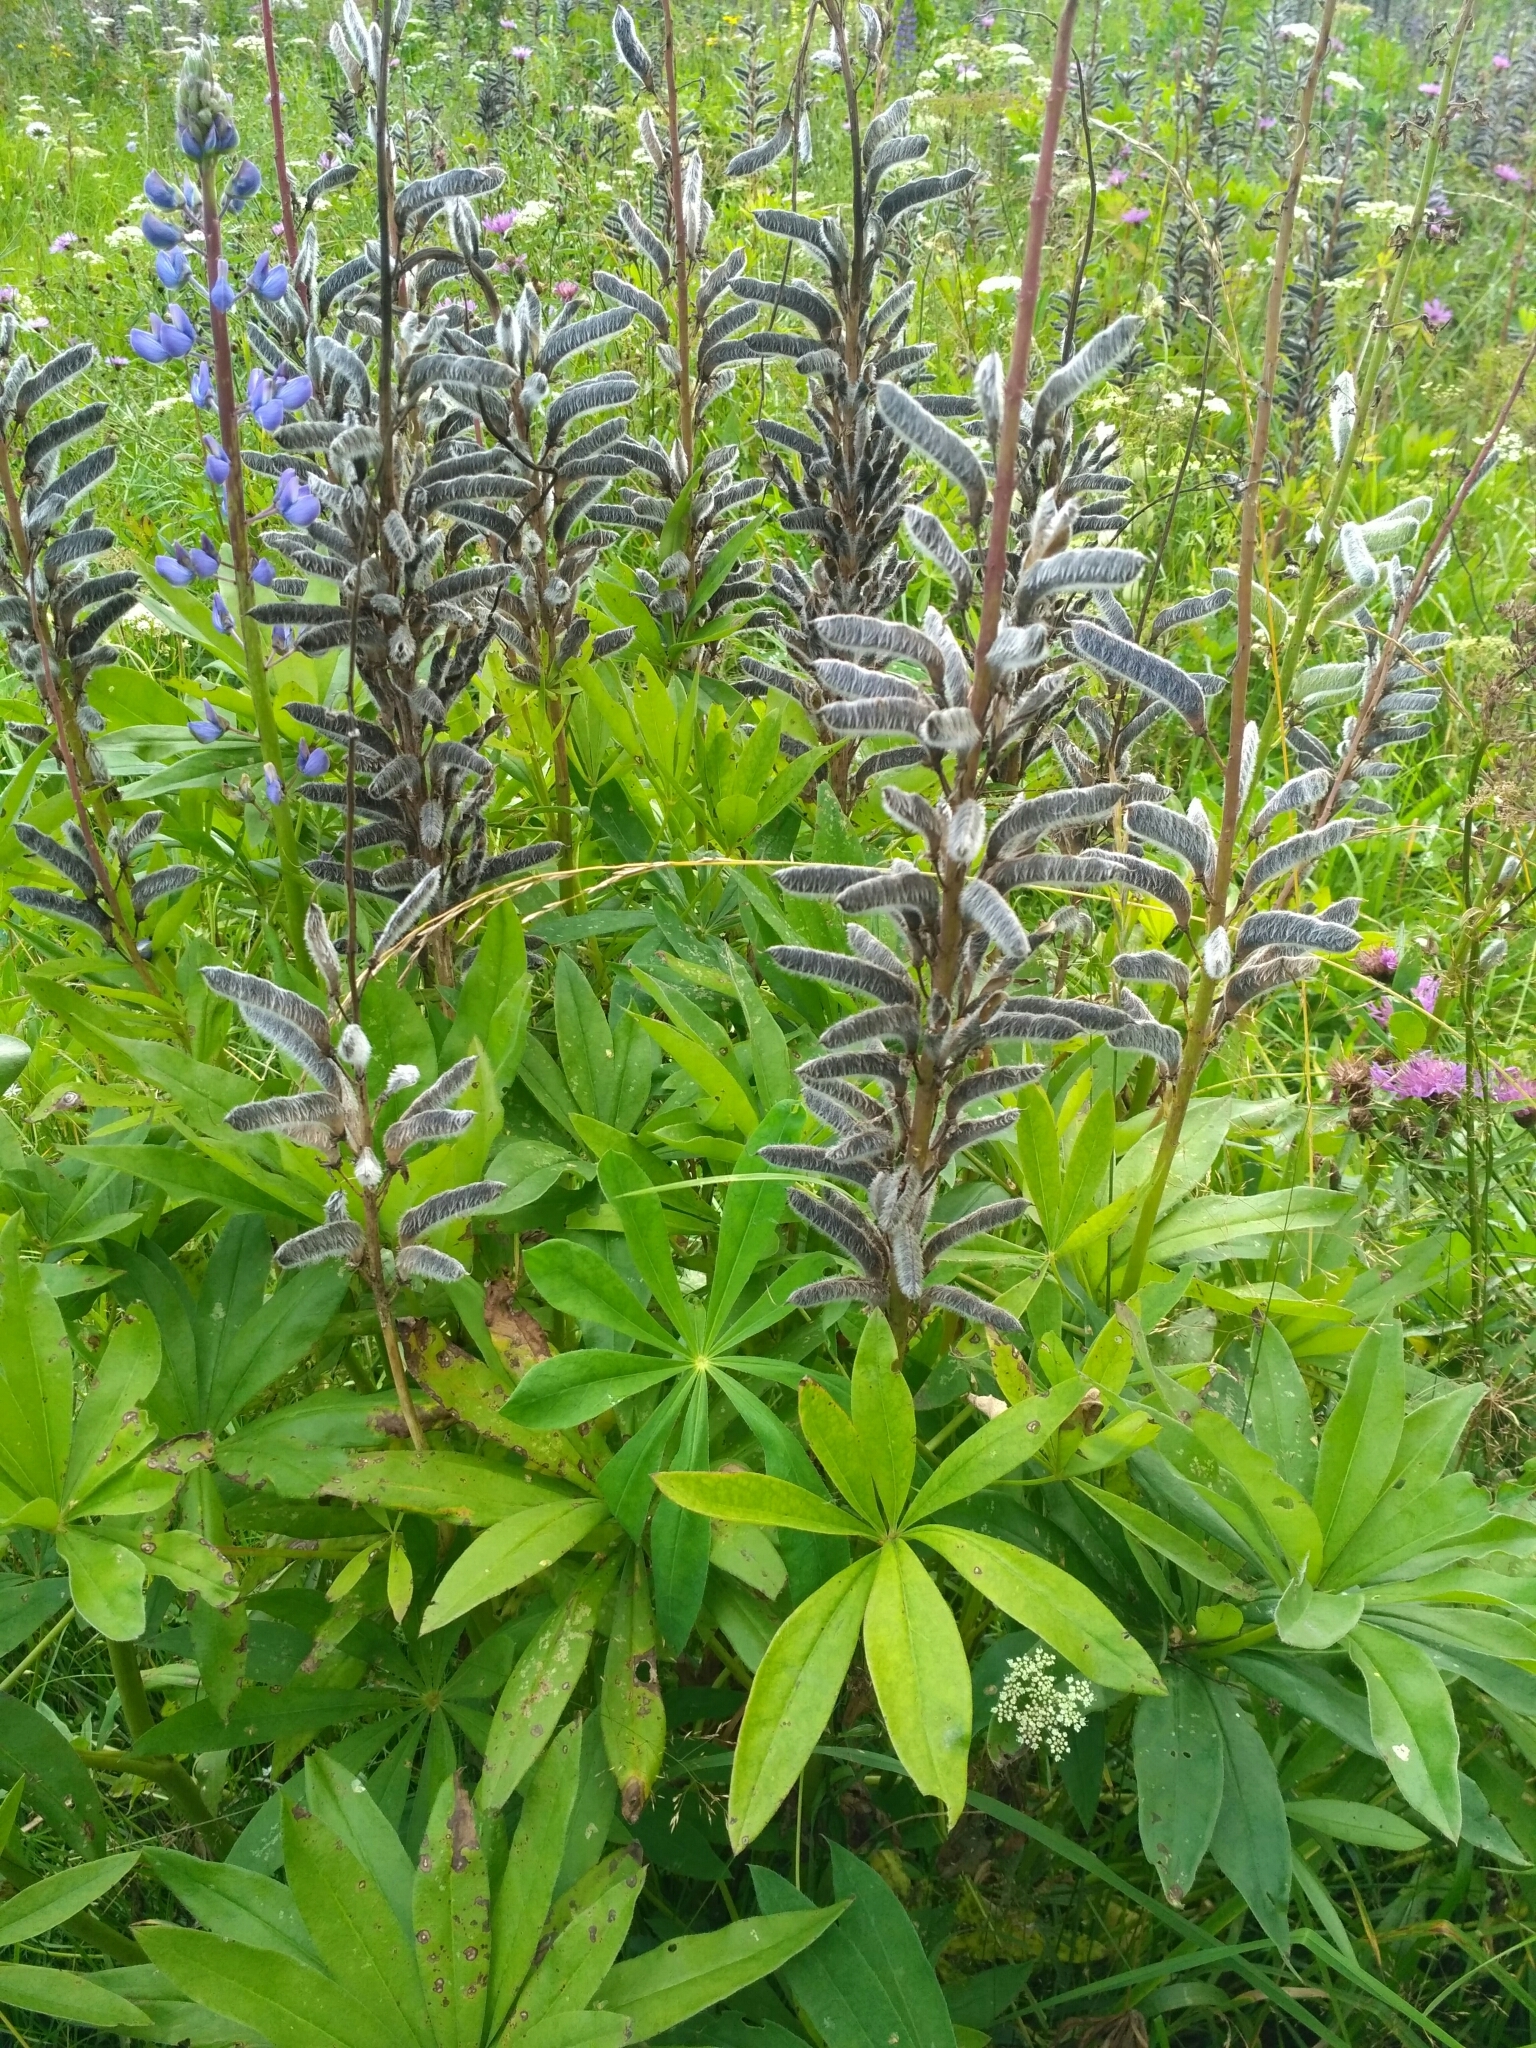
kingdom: Plantae
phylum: Tracheophyta
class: Magnoliopsida
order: Fabales
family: Fabaceae
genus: Lupinus
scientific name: Lupinus polyphyllus
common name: Garden lupin
